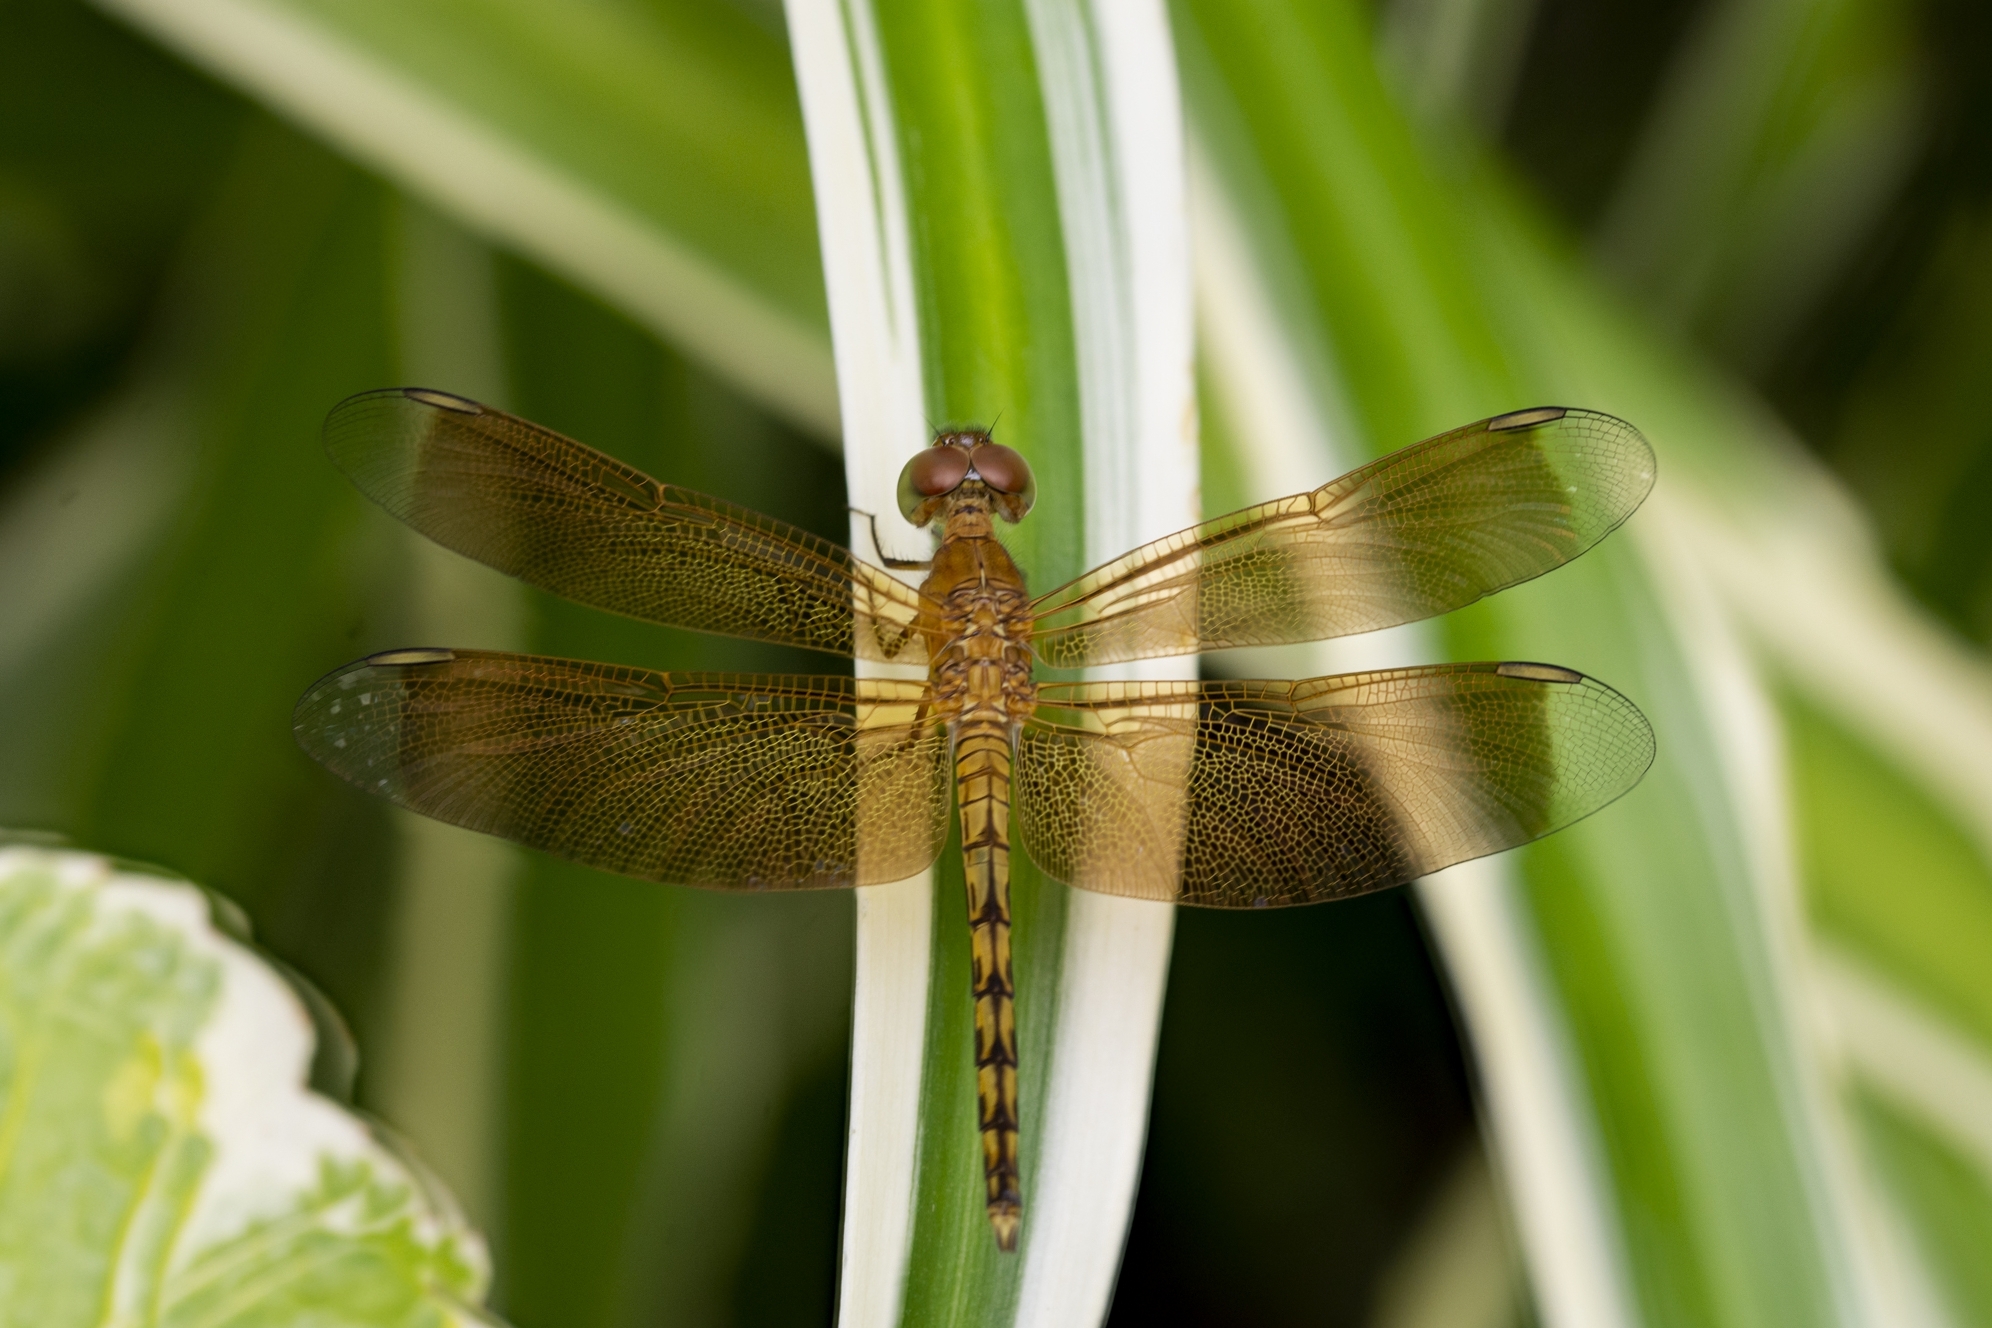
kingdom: Animalia
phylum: Arthropoda
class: Insecta
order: Odonata
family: Libellulidae
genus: Neurothemis
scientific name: Neurothemis terminata
